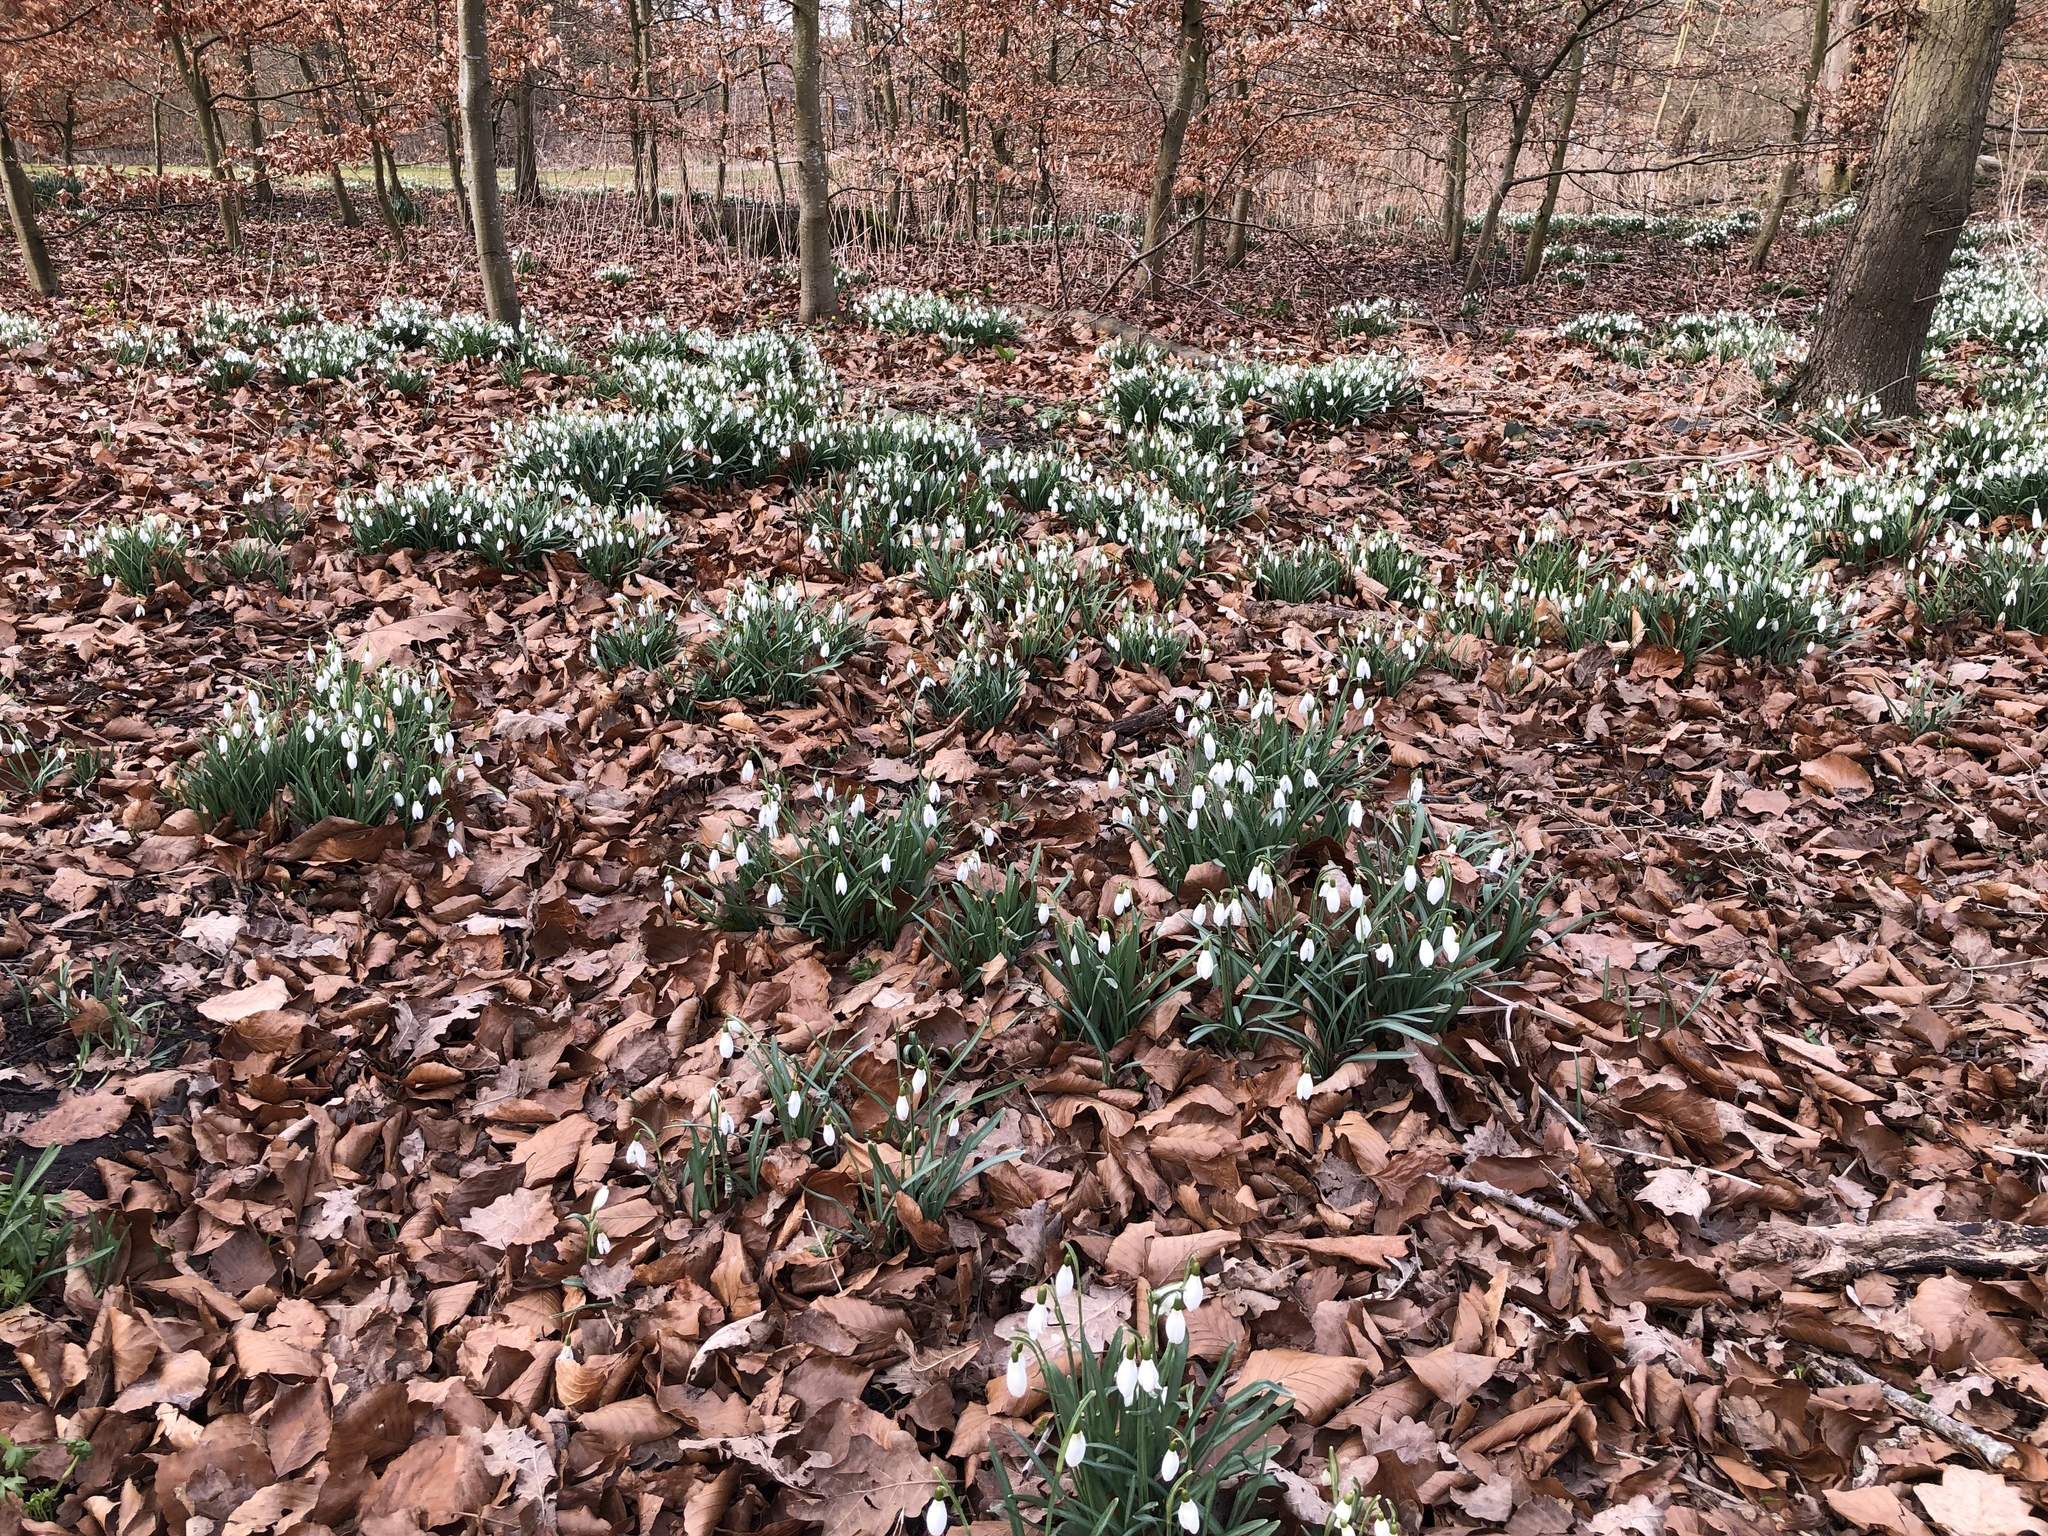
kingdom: Plantae
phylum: Tracheophyta
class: Liliopsida
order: Asparagales
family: Amaryllidaceae
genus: Galanthus
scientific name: Galanthus nivalis
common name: Snowdrop
